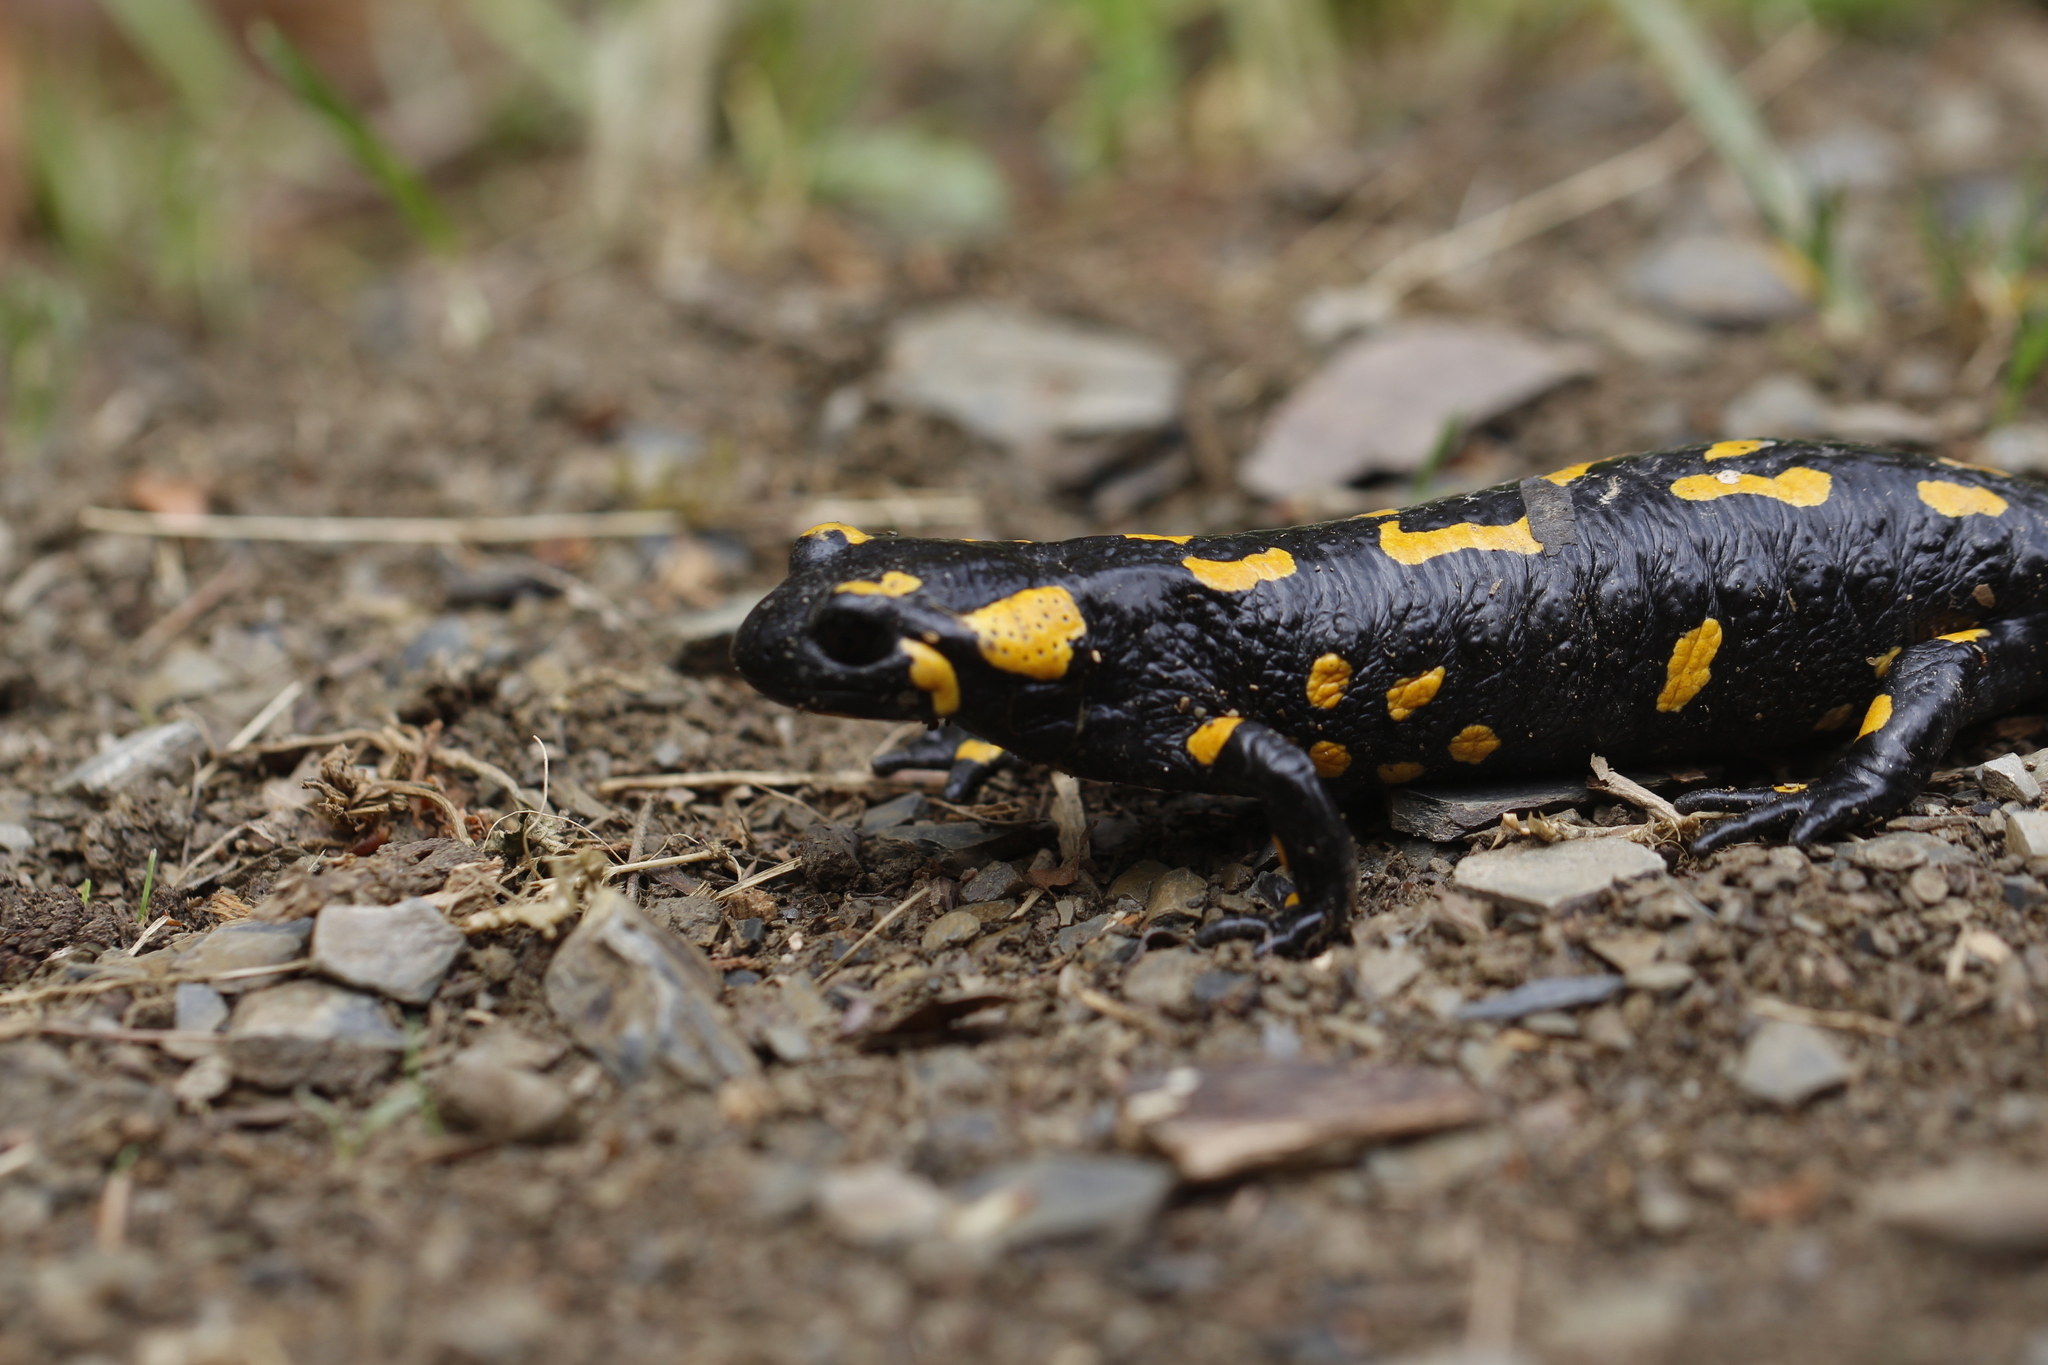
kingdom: Animalia
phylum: Chordata
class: Amphibia
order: Caudata
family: Salamandridae
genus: Salamandra
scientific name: Salamandra salamandra
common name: Fire salamander
